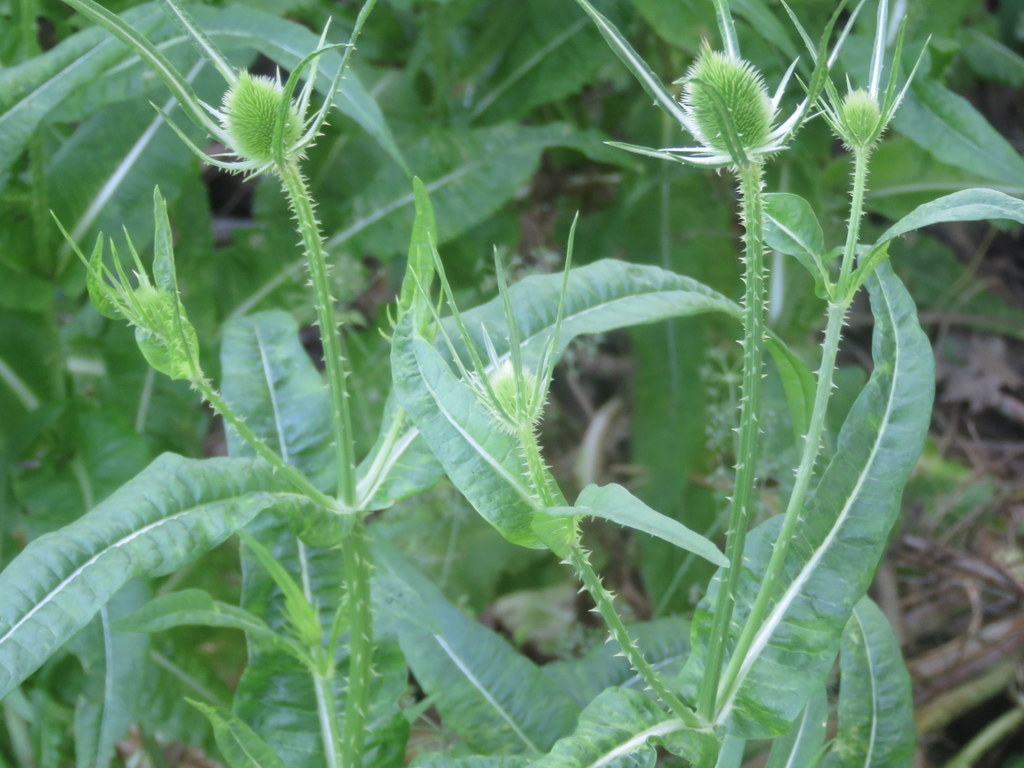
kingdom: Plantae
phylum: Tracheophyta
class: Magnoliopsida
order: Dipsacales
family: Caprifoliaceae
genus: Dipsacus
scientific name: Dipsacus fullonum
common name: Teasel
